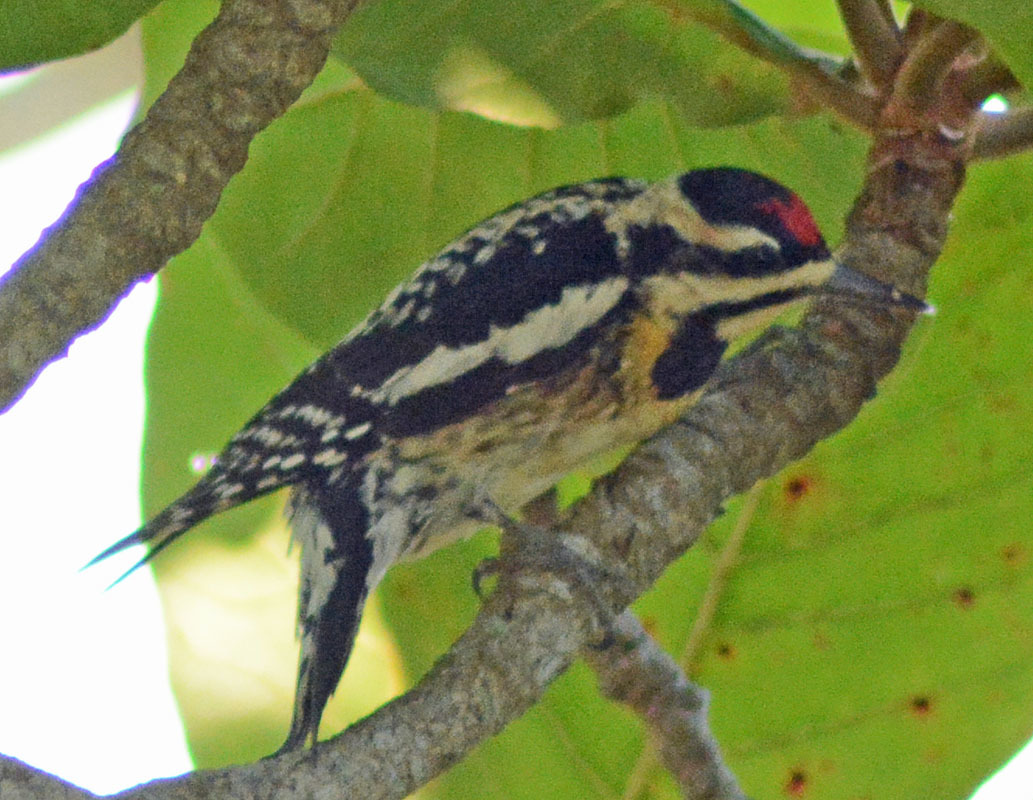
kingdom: Animalia
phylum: Chordata
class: Aves
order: Piciformes
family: Picidae
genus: Sphyrapicus
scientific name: Sphyrapicus varius
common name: Yellow-bellied sapsucker
